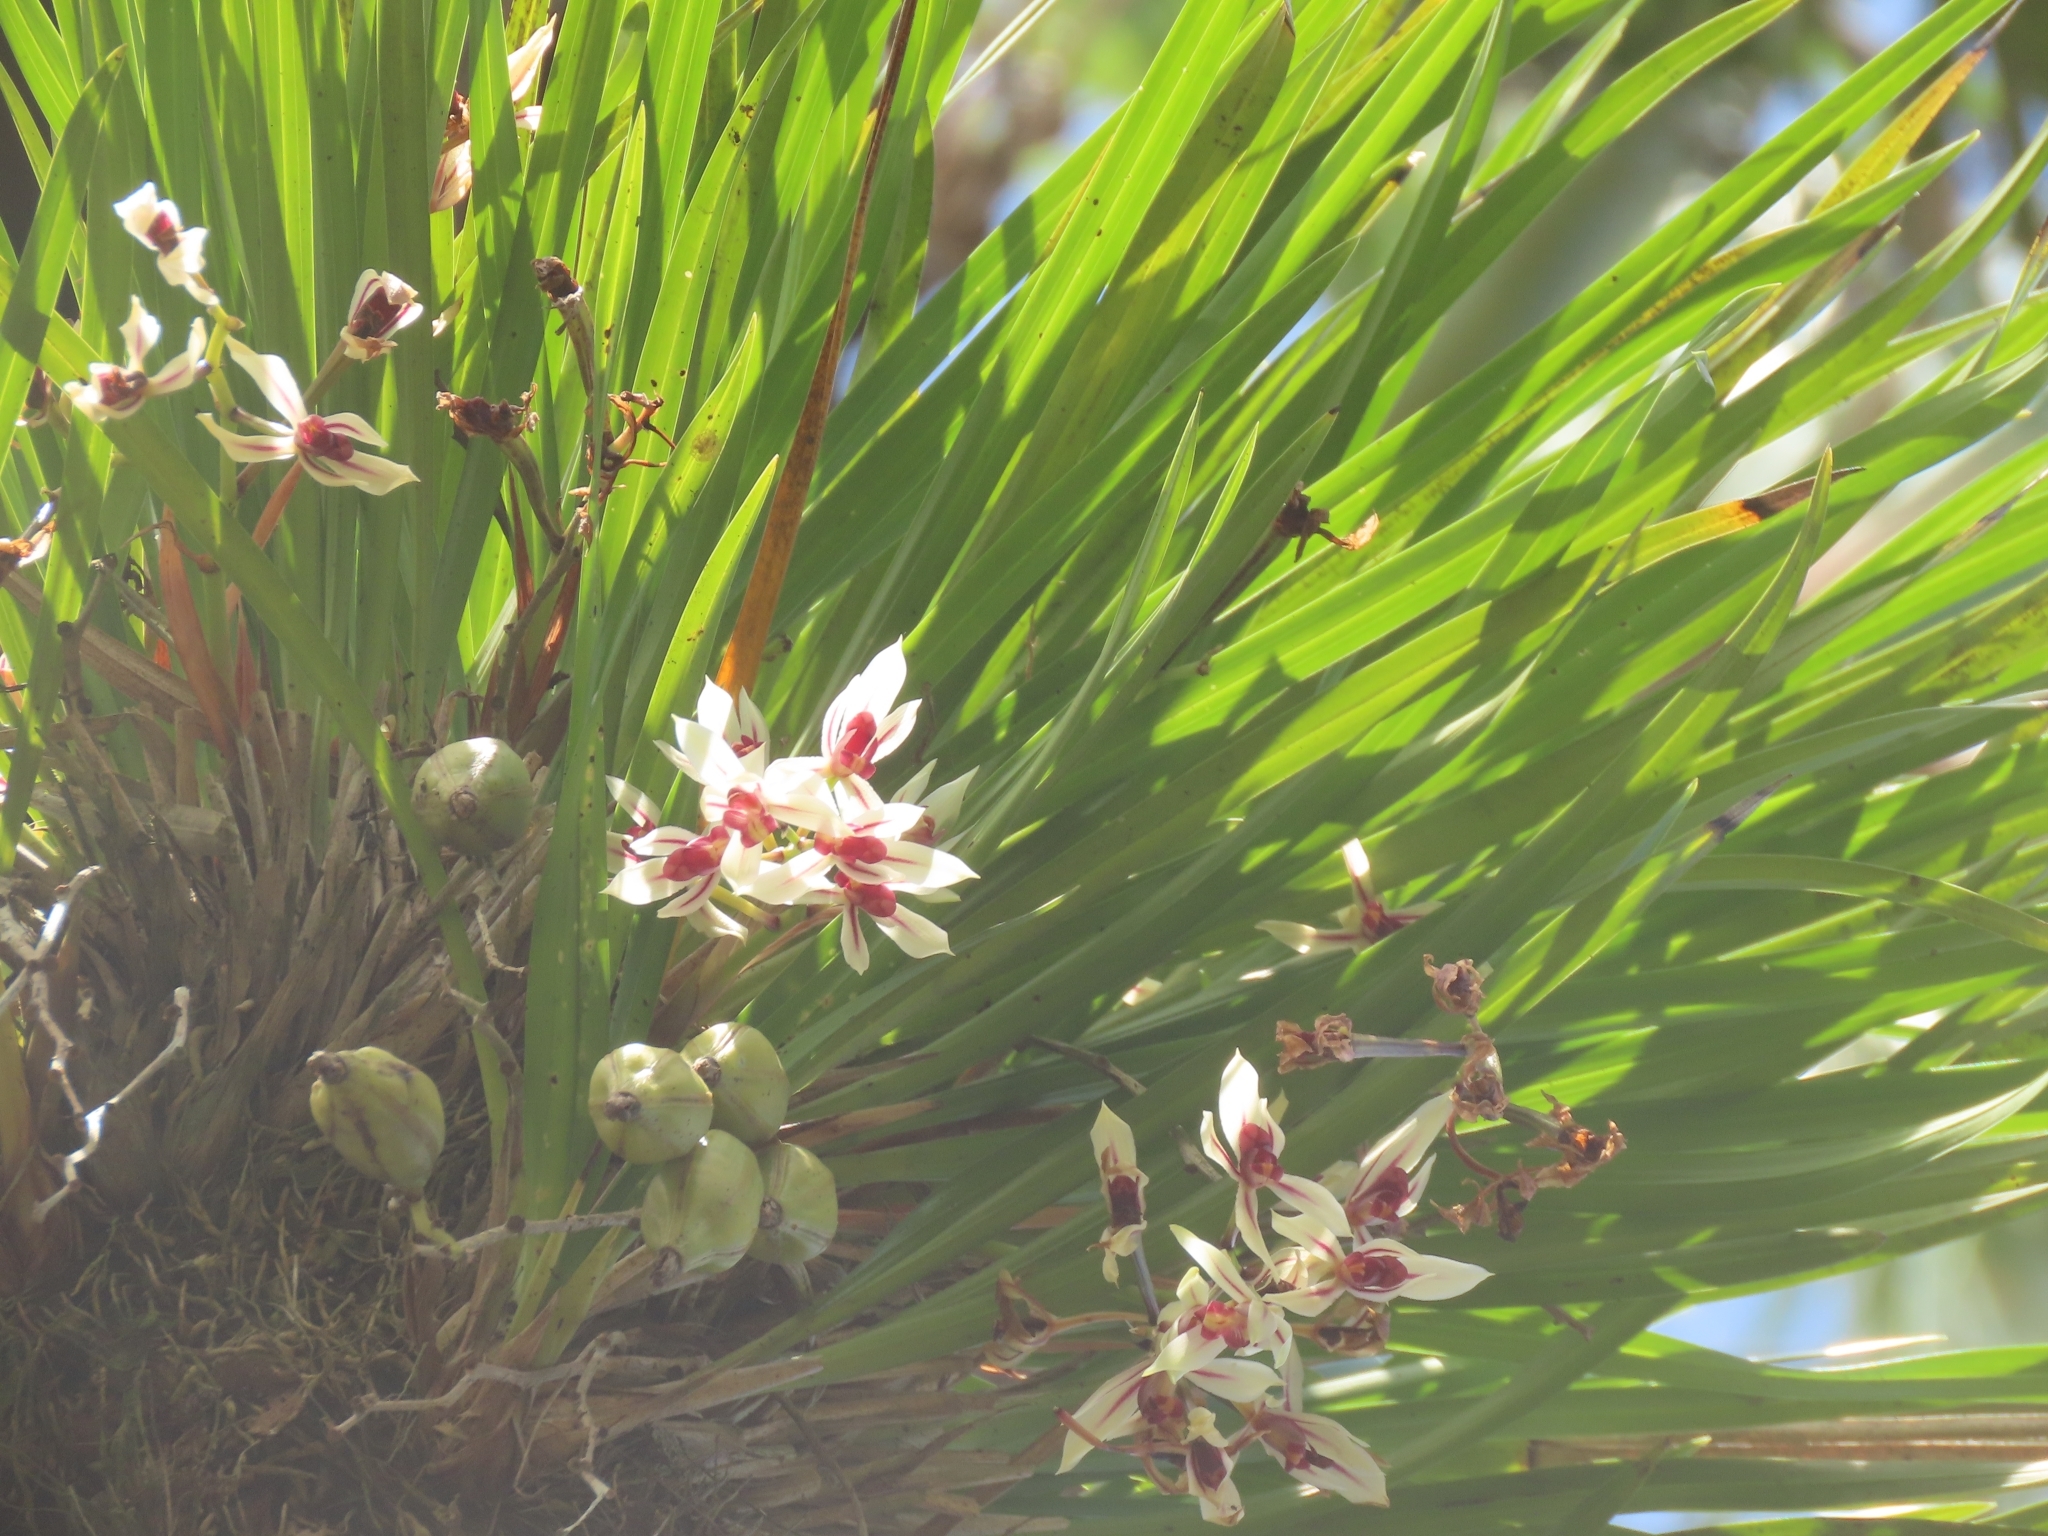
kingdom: Plantae
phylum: Tracheophyta
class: Liliopsida
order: Asparagales
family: Orchidaceae
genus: Cymbidium
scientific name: Cymbidium dayanum
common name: Orchid
